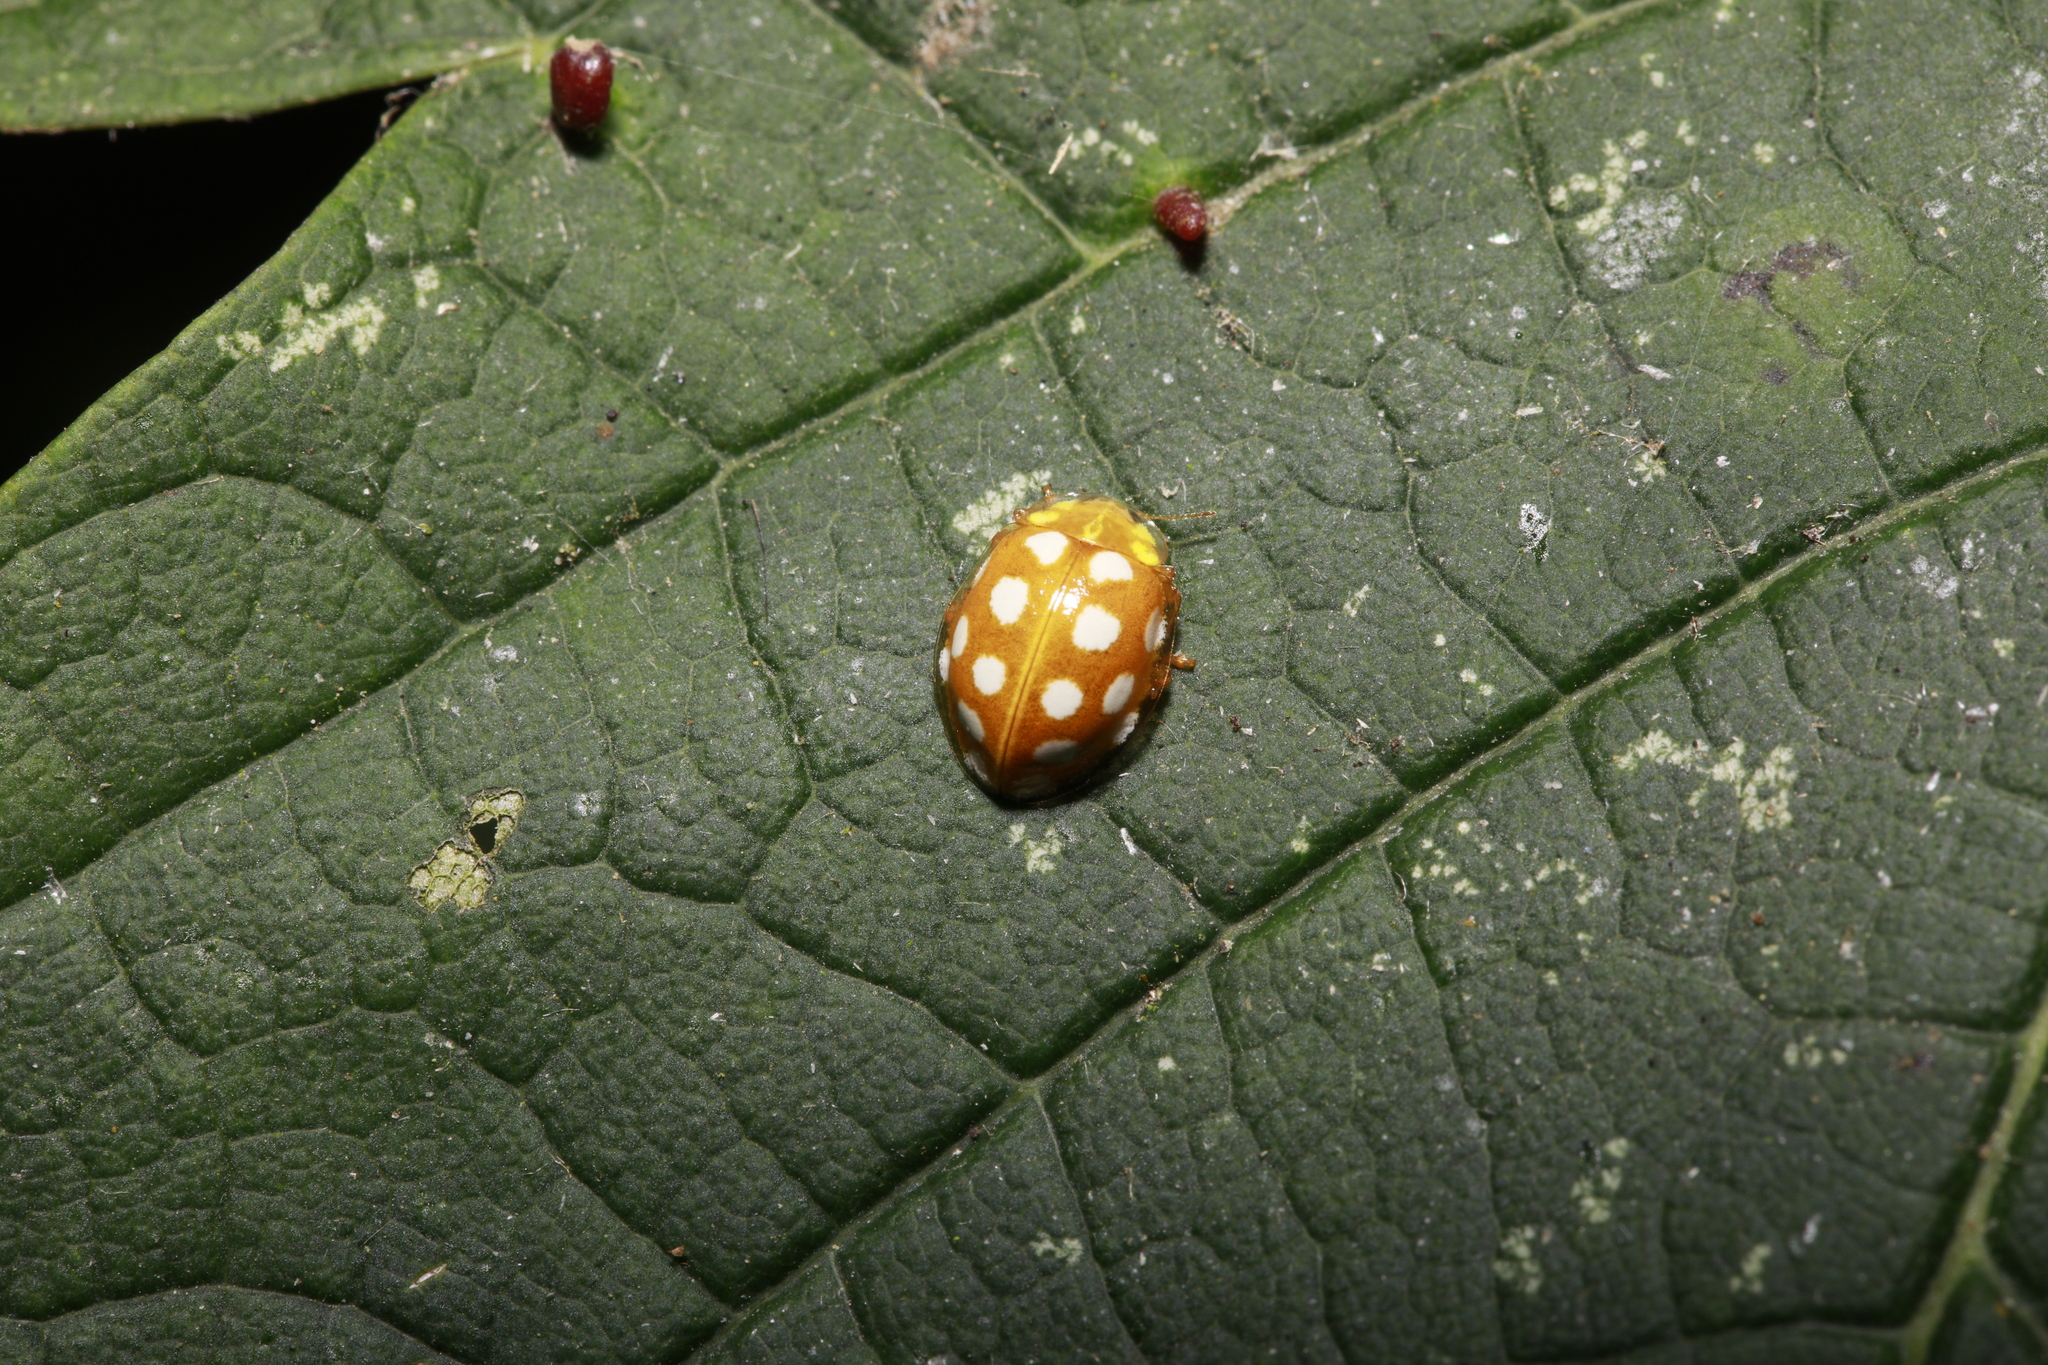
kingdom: Animalia
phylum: Arthropoda
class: Insecta
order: Coleoptera
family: Coccinellidae
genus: Halyzia
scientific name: Halyzia sedecimguttata
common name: Orange ladybird
